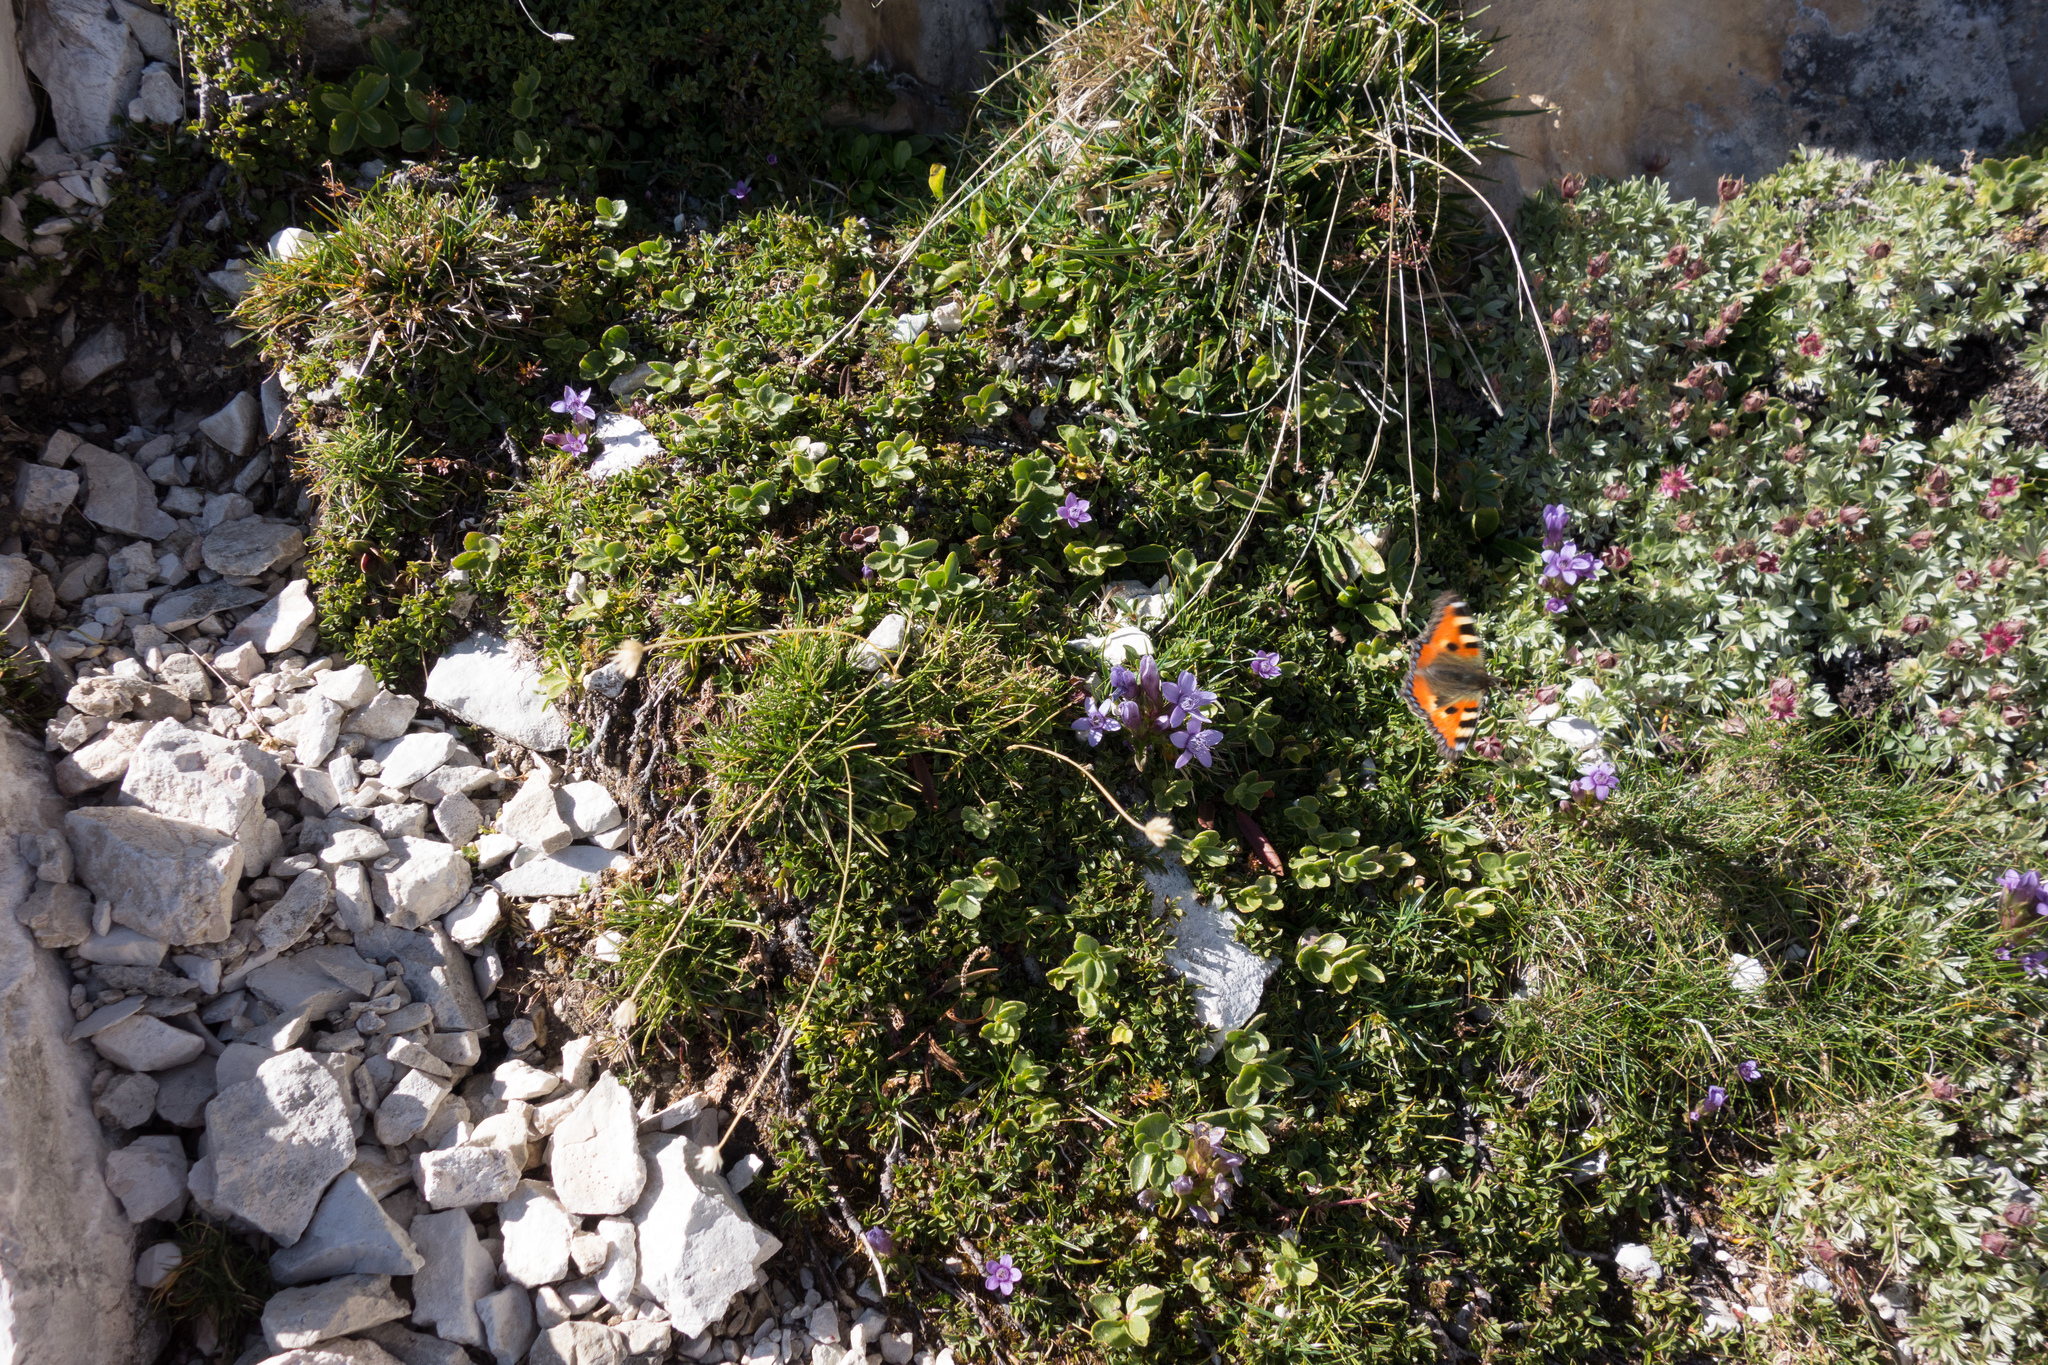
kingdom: Animalia
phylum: Arthropoda
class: Insecta
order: Lepidoptera
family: Nymphalidae
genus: Aglais
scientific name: Aglais urticae
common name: Small tortoiseshell
